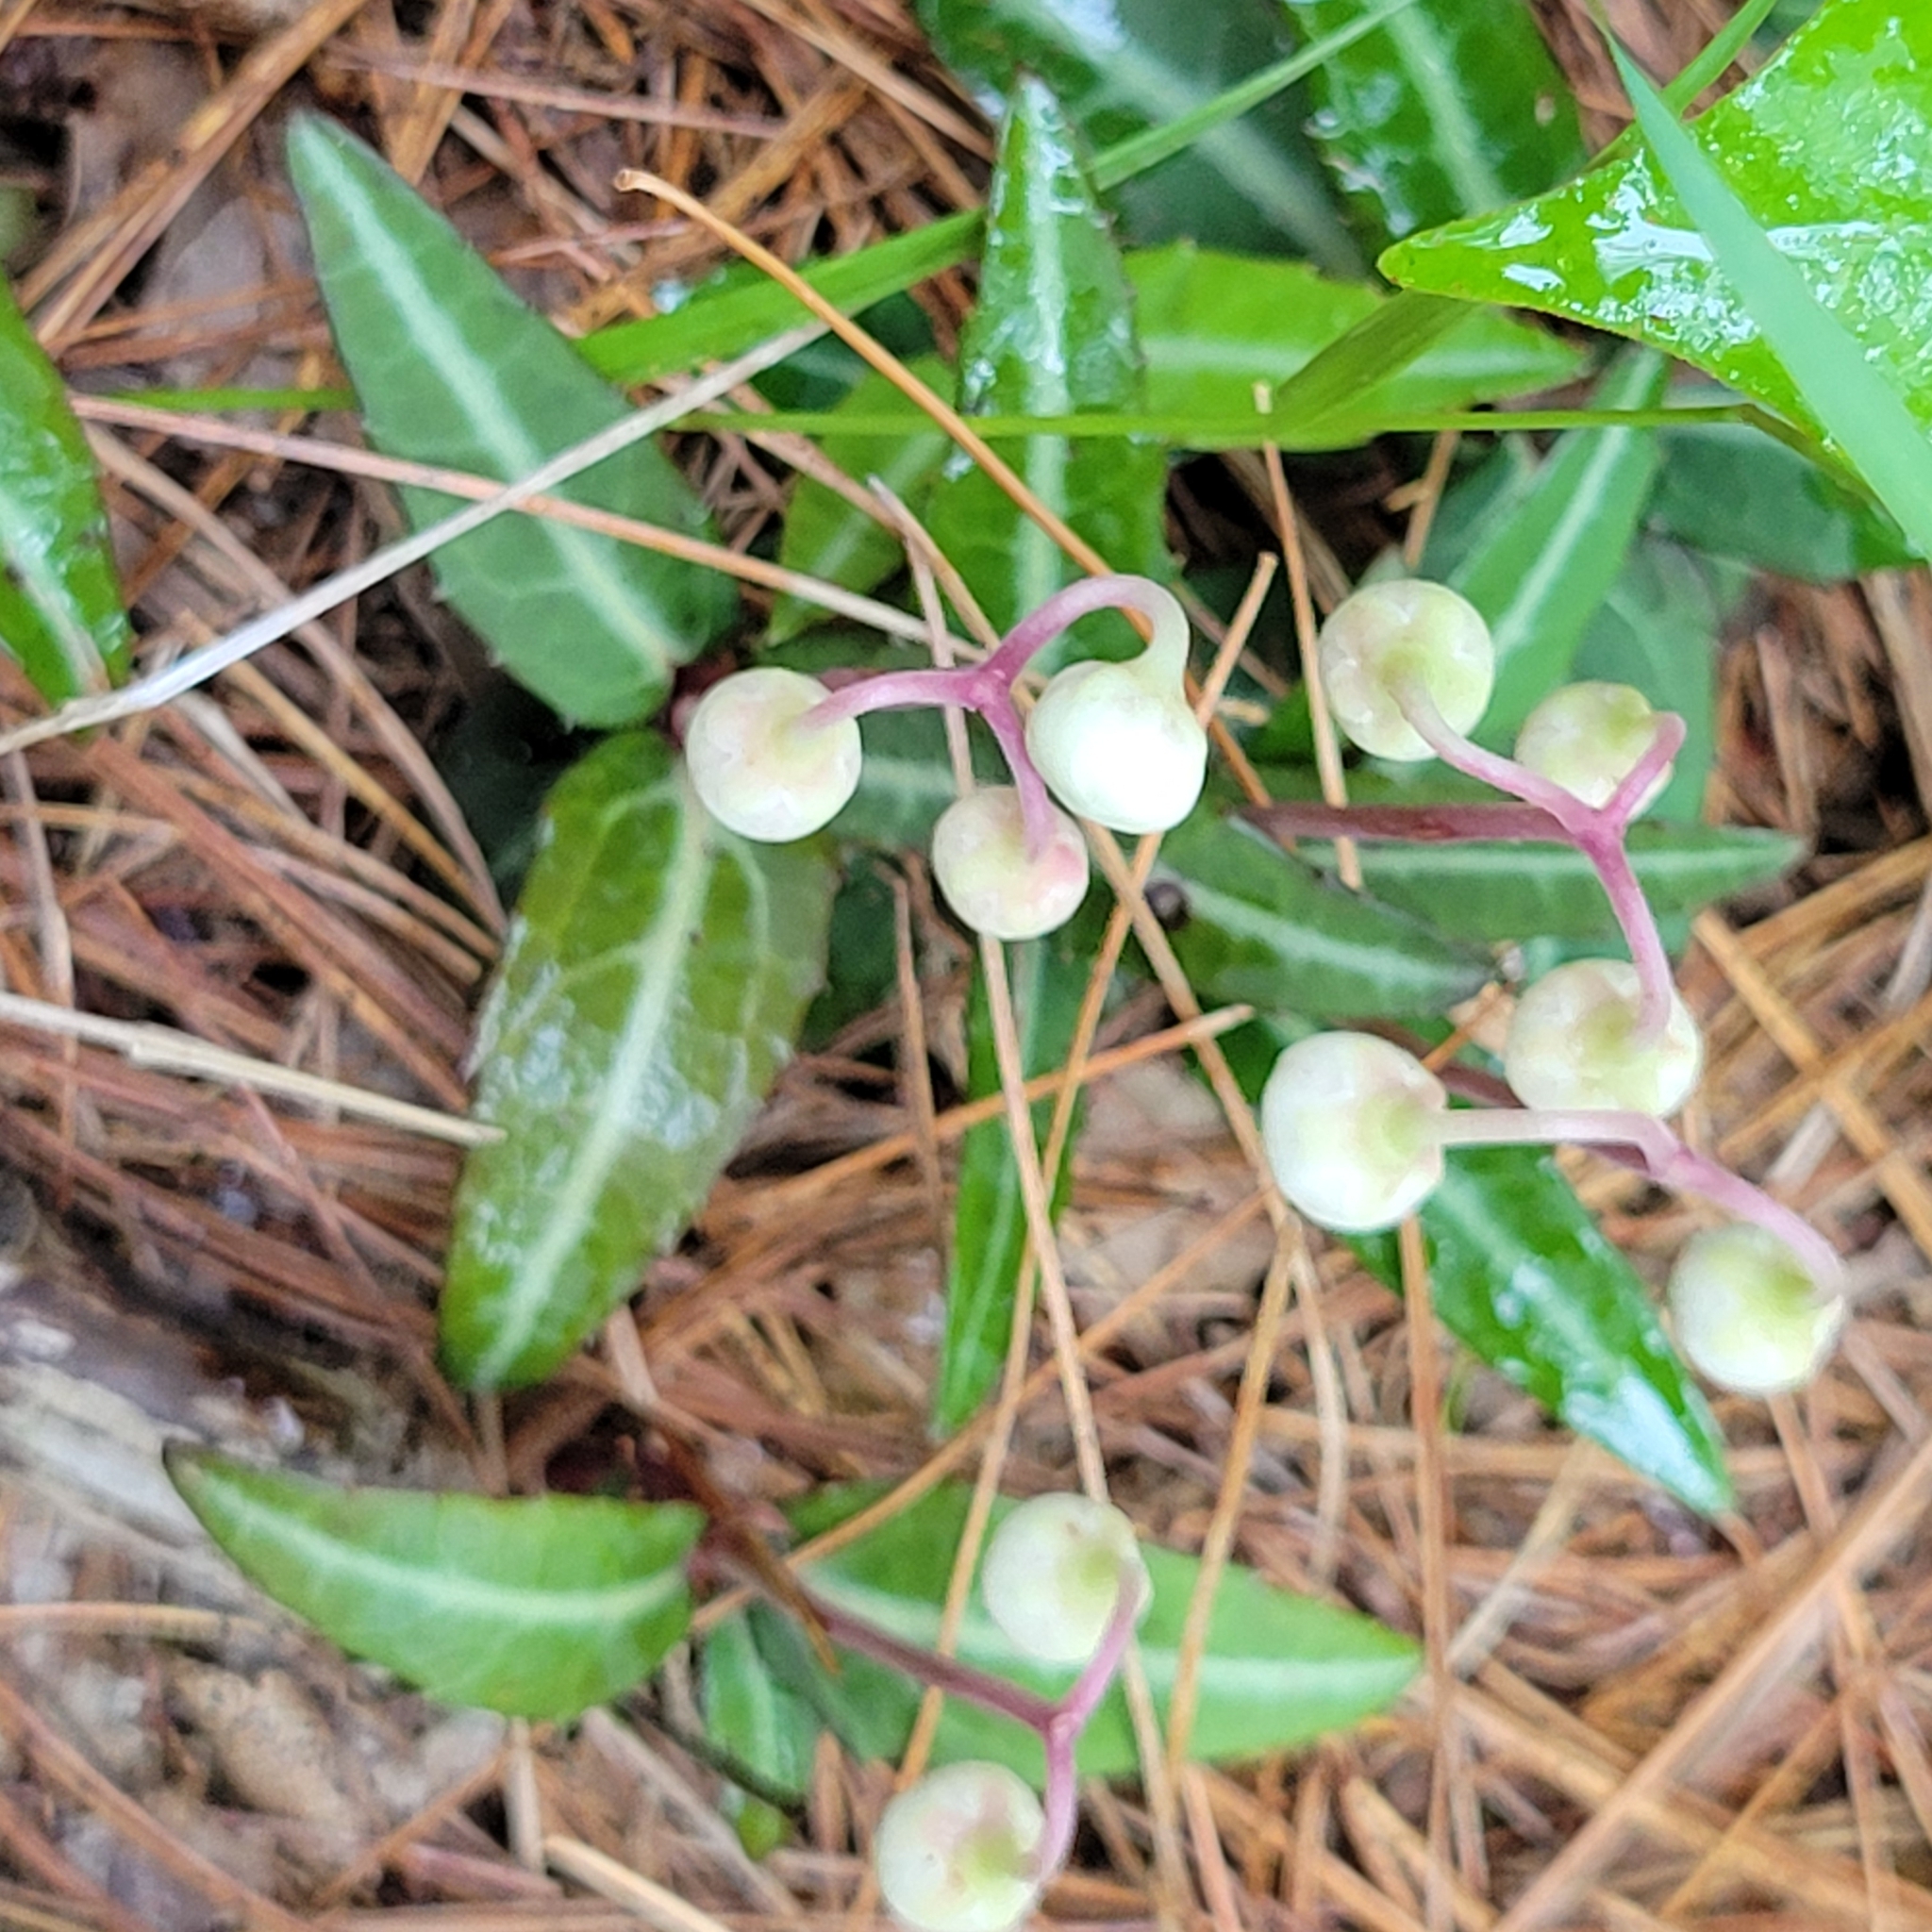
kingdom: Plantae
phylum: Tracheophyta
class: Magnoliopsida
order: Ericales
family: Ericaceae
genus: Chimaphila
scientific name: Chimaphila maculata
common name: Spotted pipsissewa
